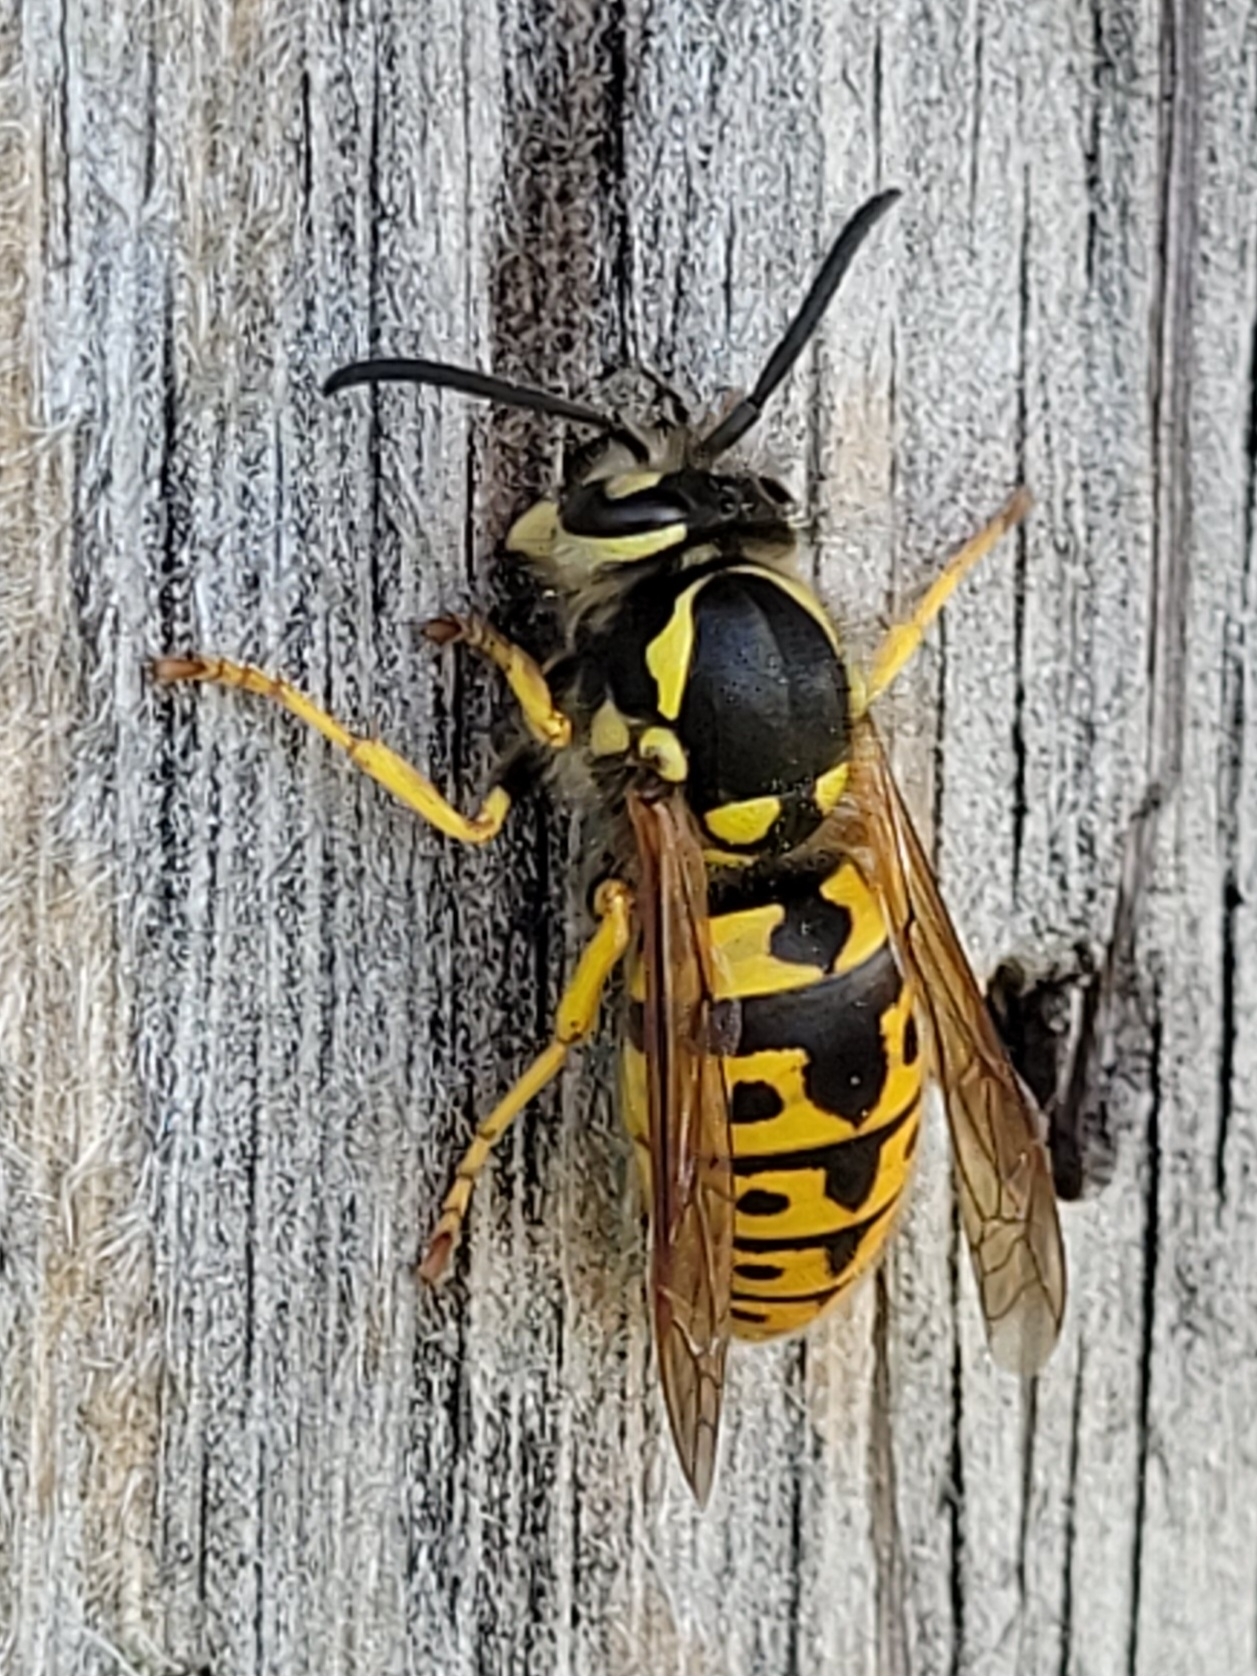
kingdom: Animalia
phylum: Arthropoda
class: Insecta
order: Hymenoptera
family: Vespidae
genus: Vespula
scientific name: Vespula germanica
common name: German wasp
